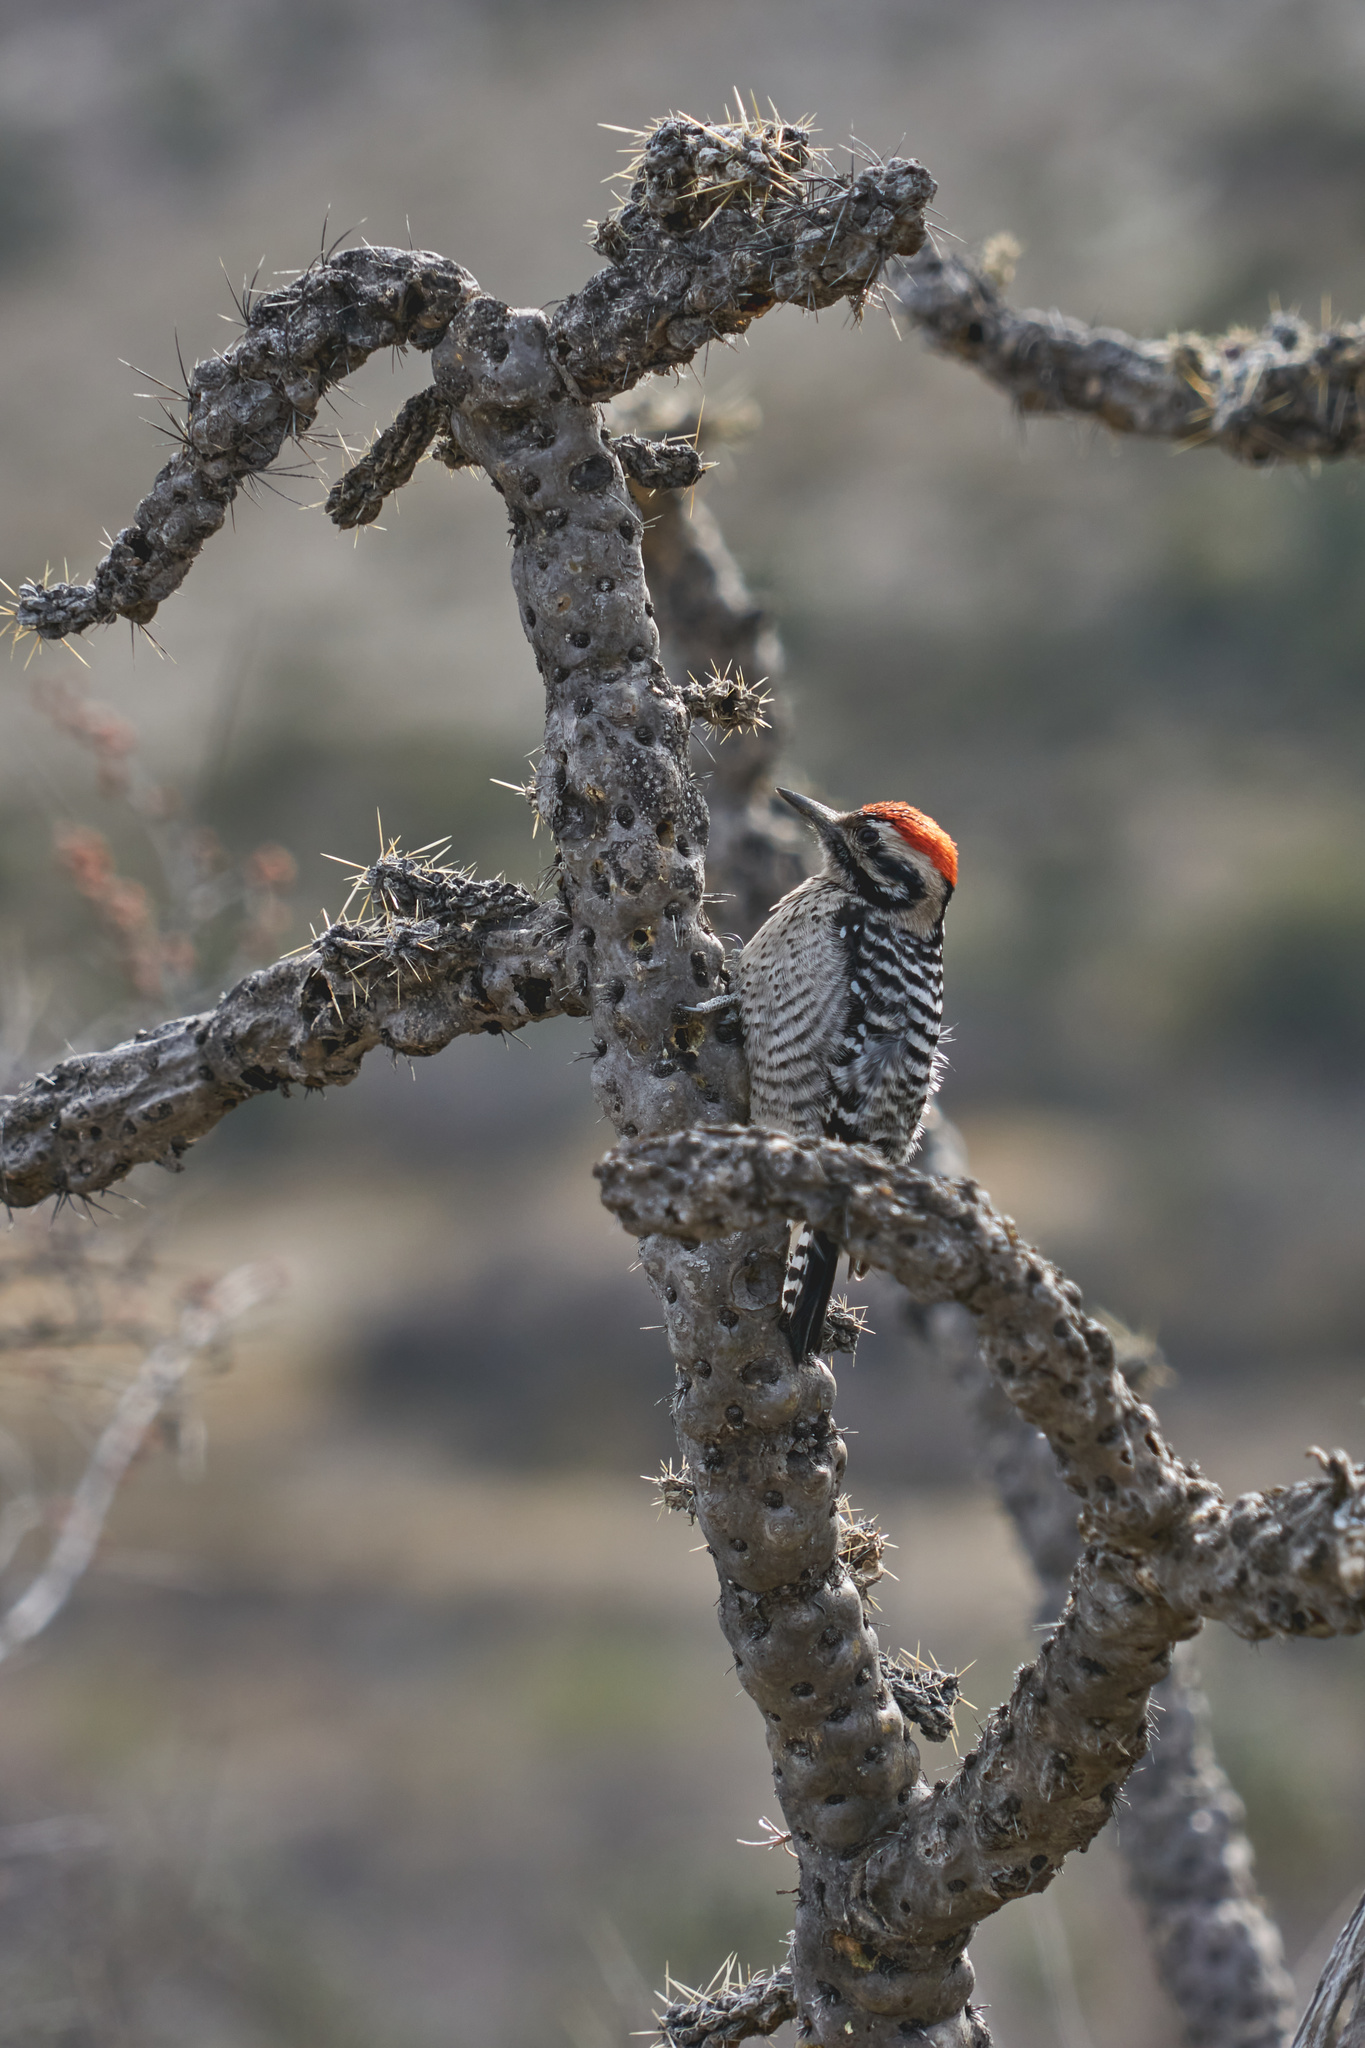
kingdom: Animalia
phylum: Chordata
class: Aves
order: Piciformes
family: Picidae
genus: Dryobates
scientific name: Dryobates scalaris
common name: Ladder-backed woodpecker
